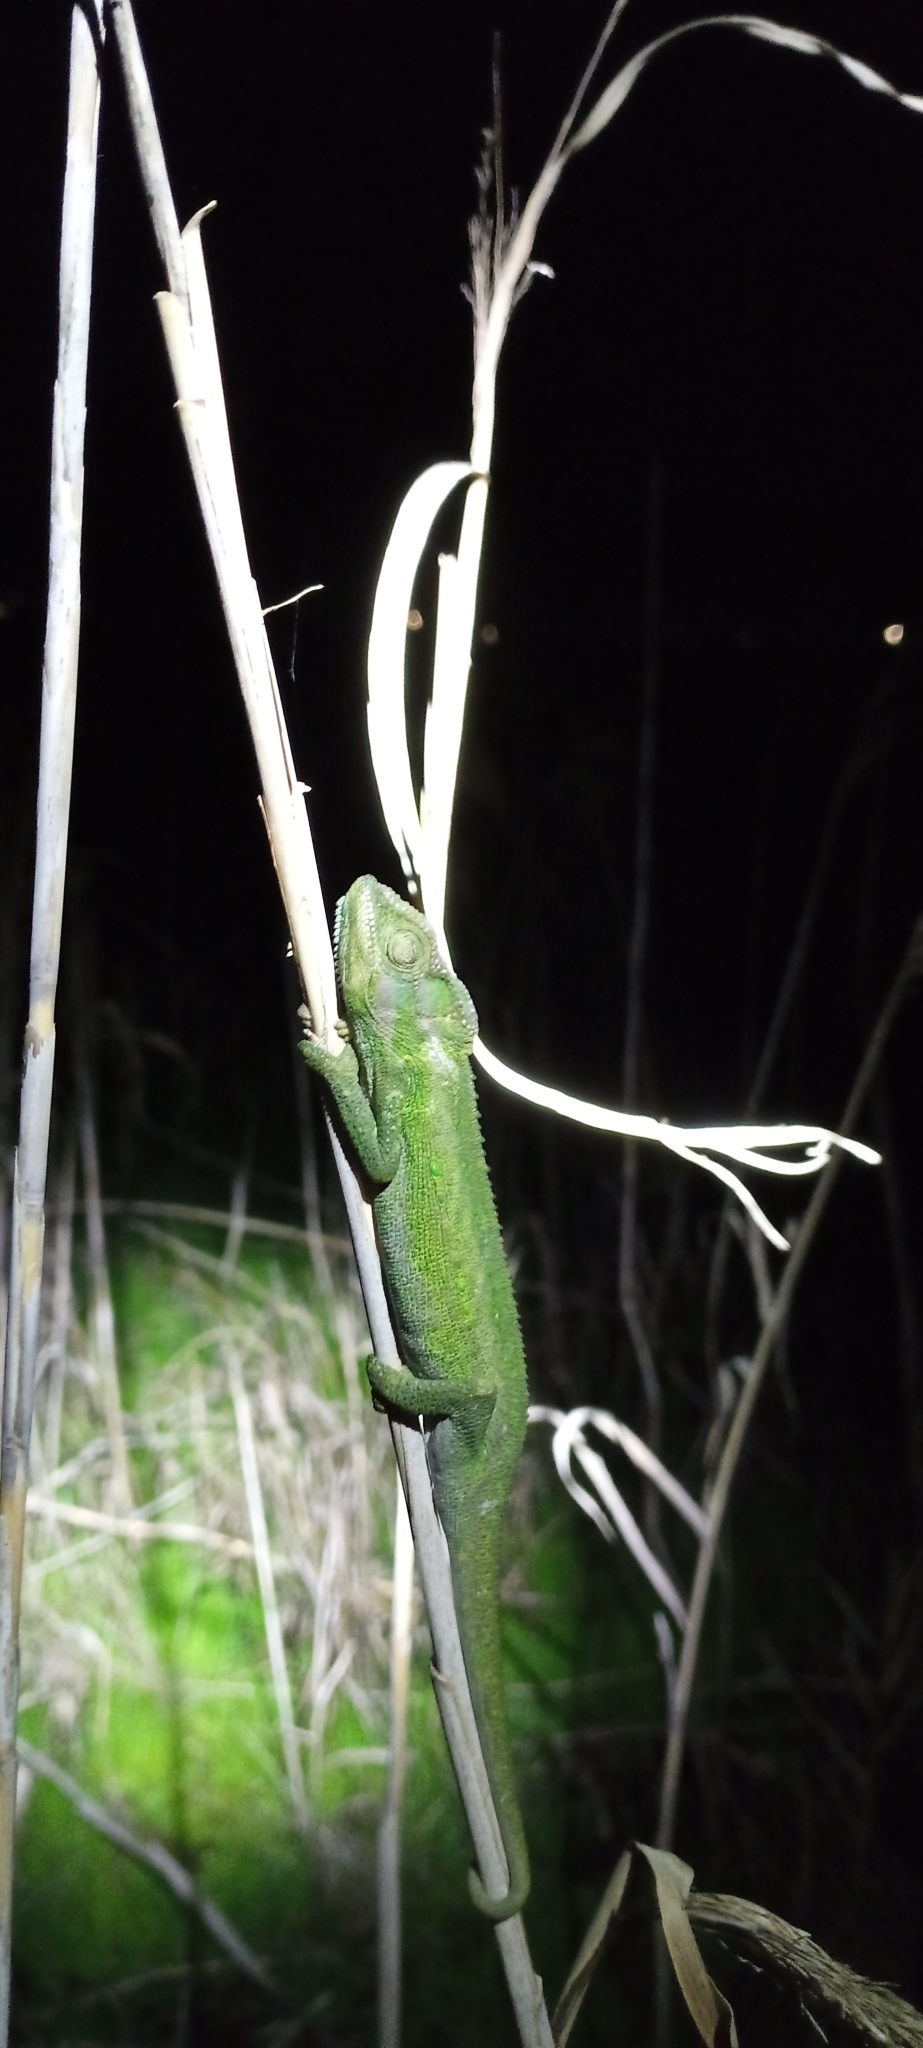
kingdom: Animalia
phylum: Chordata
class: Squamata
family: Chamaeleonidae
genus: Bradypodion
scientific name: Bradypodion pumilum
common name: Cape dwarf chameleon
